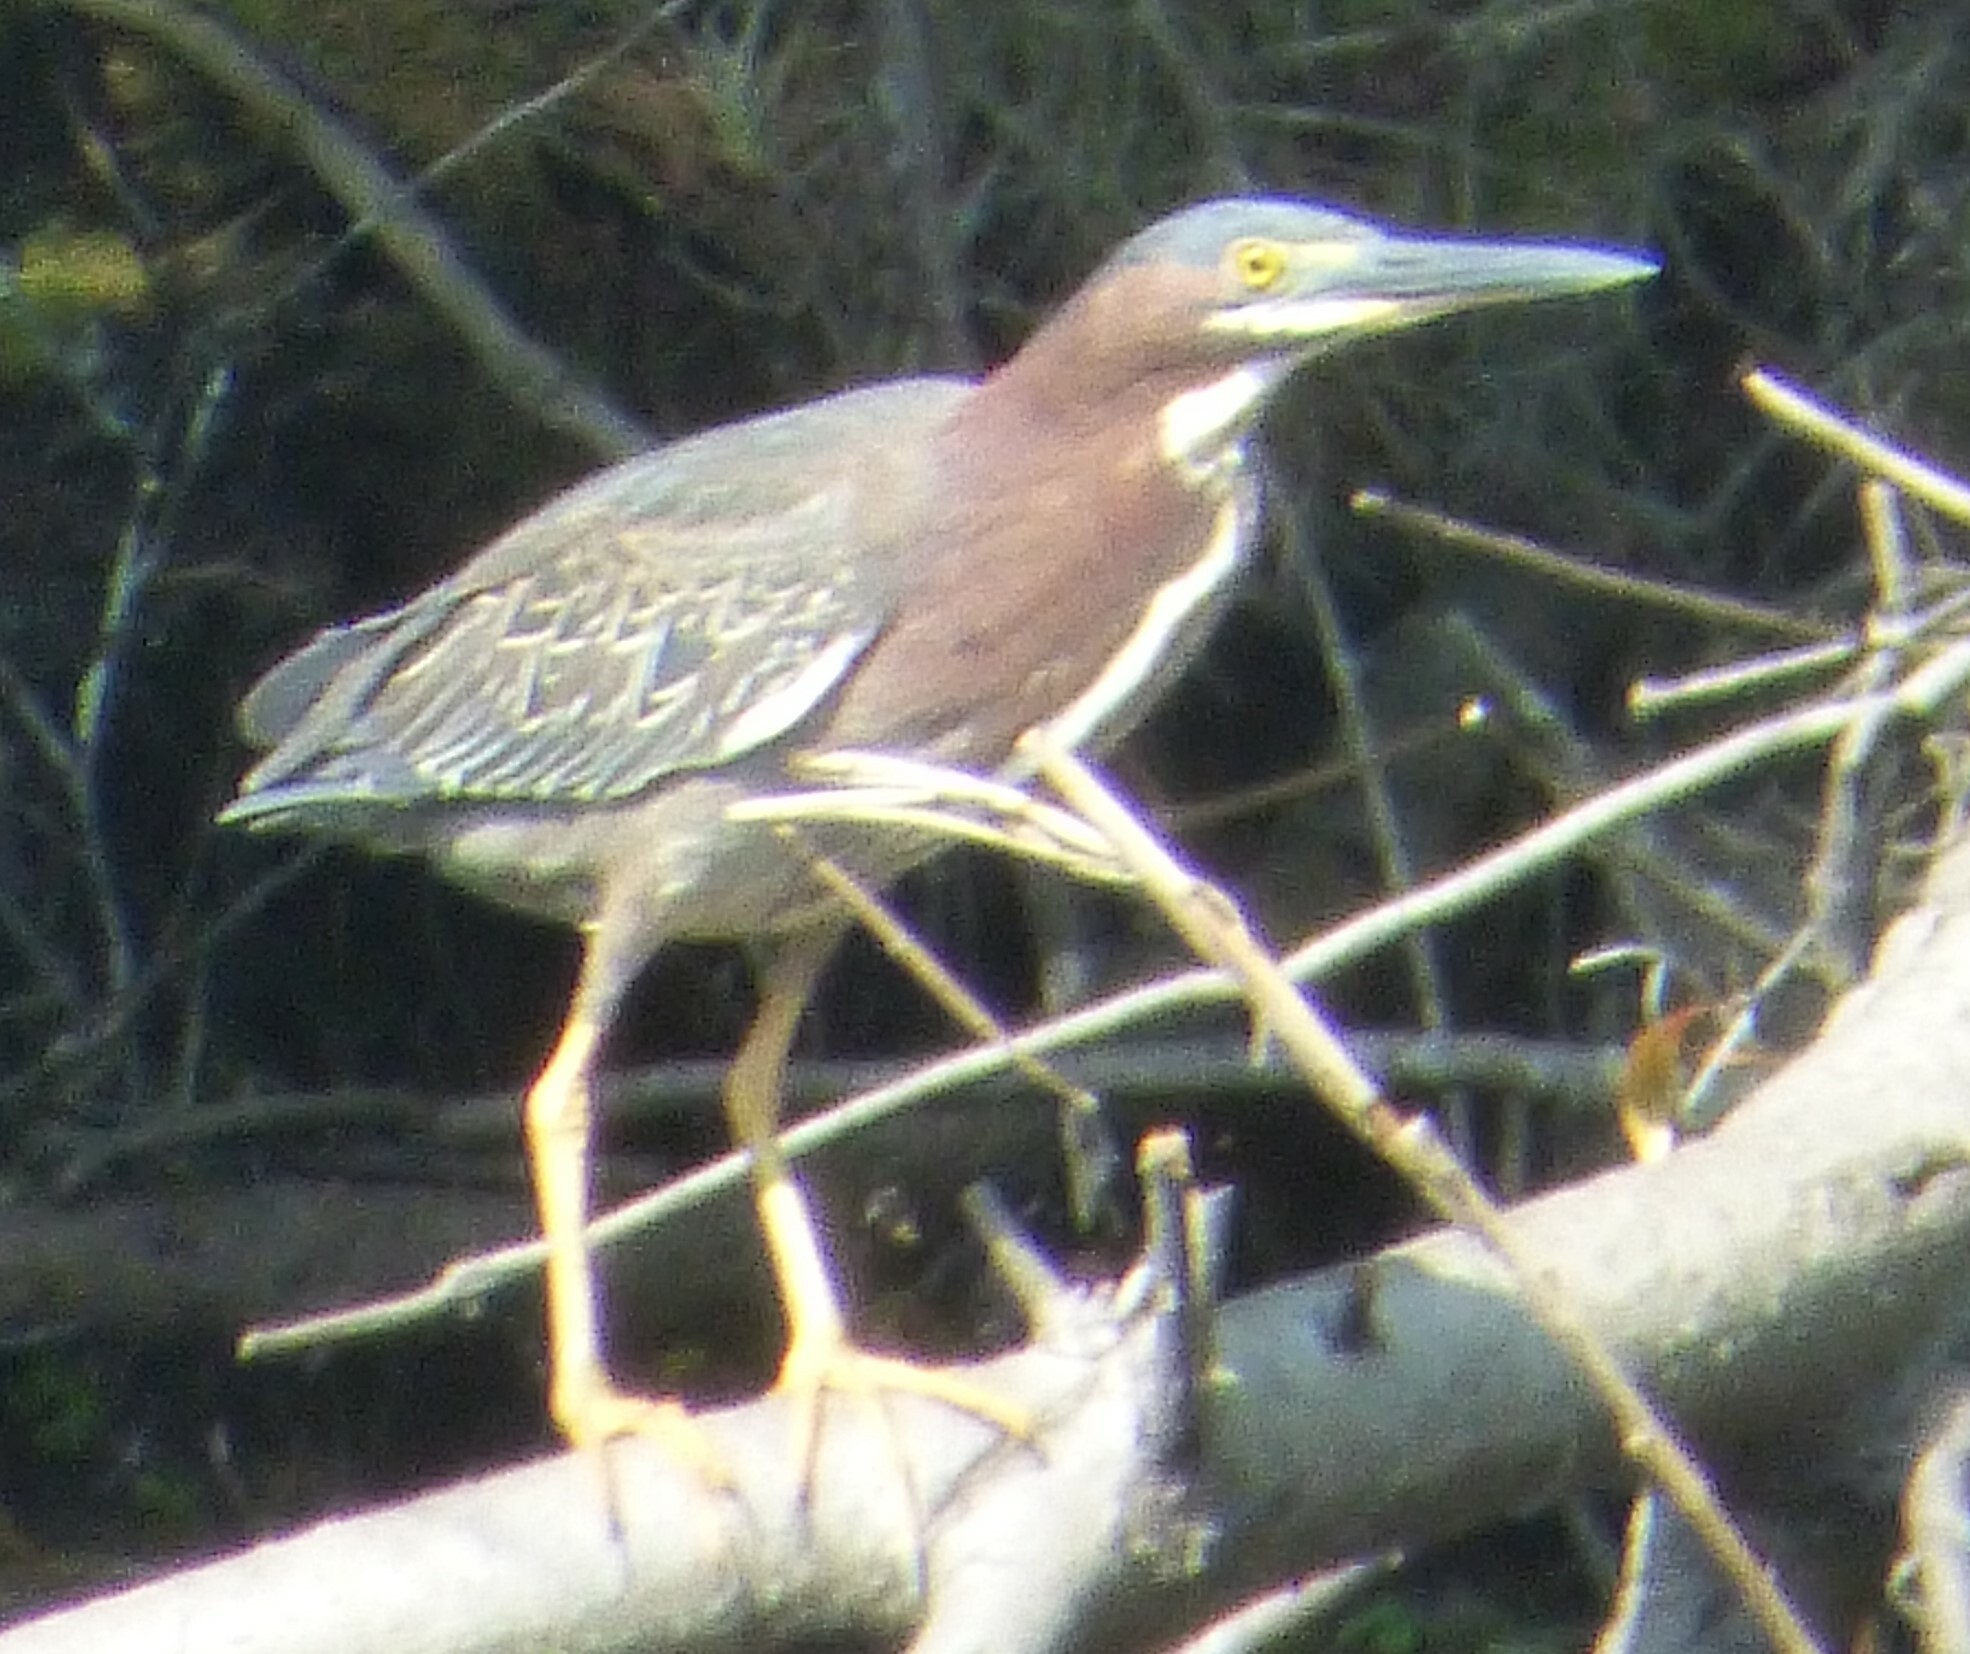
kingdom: Animalia
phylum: Chordata
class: Aves
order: Pelecaniformes
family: Ardeidae
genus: Butorides
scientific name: Butorides virescens
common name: Green heron
